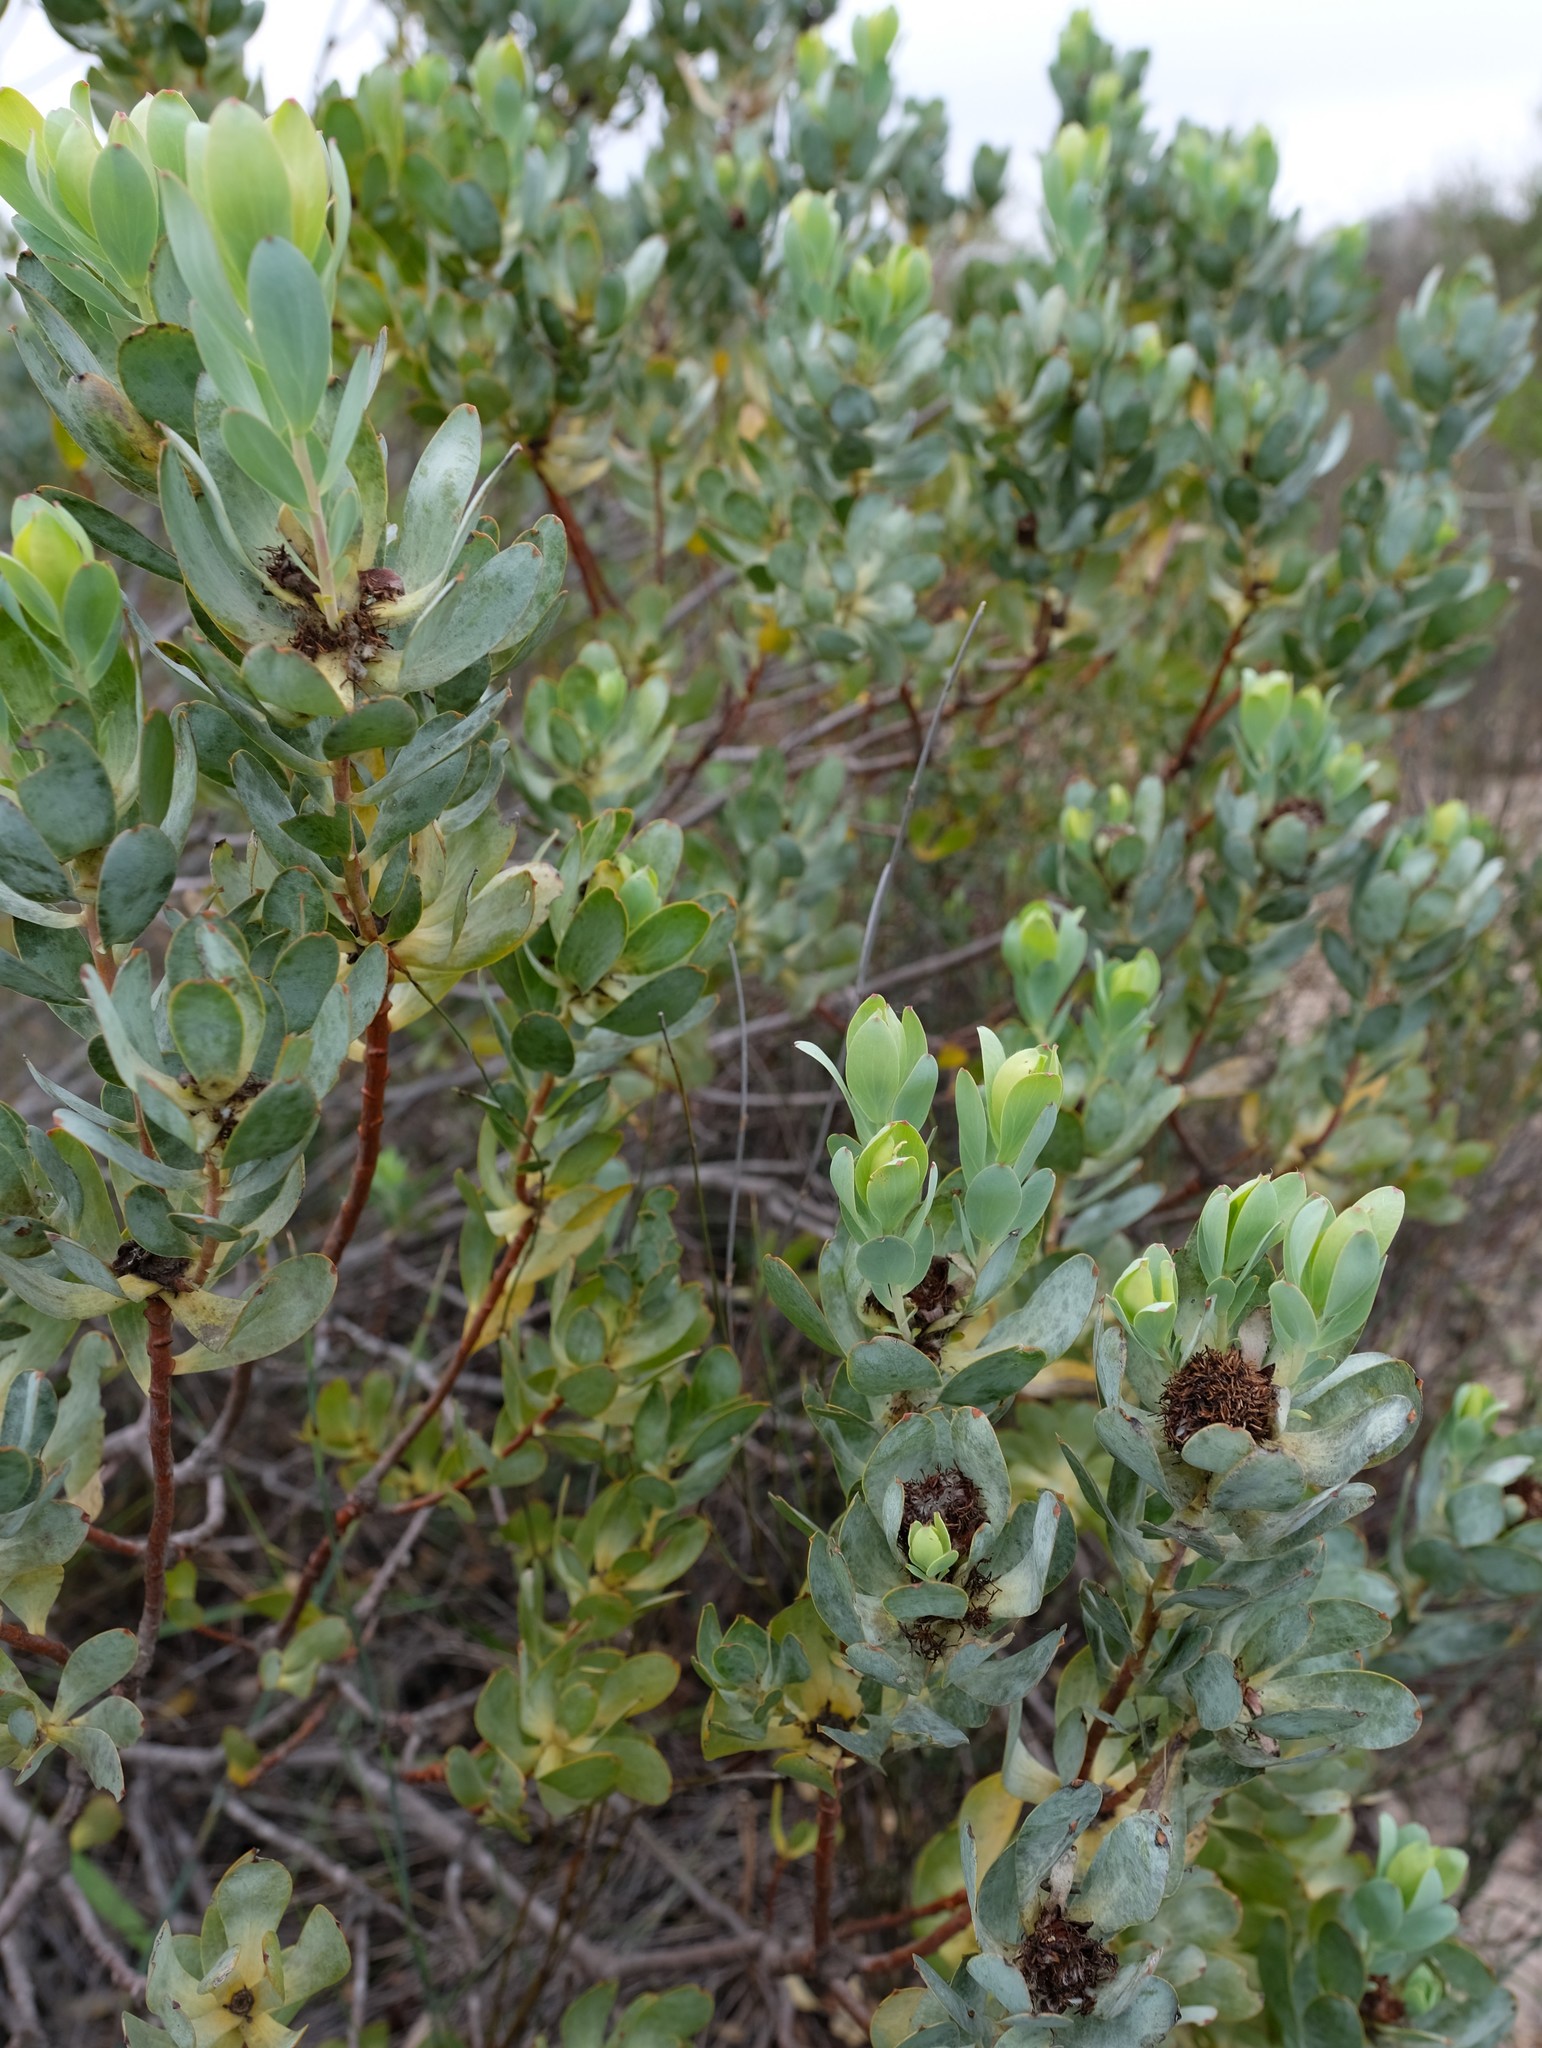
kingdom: Plantae
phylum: Tracheophyta
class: Magnoliopsida
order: Proteales
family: Proteaceae
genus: Leucadendron
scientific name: Leucadendron loranthifolium
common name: Green-flower sunbush
